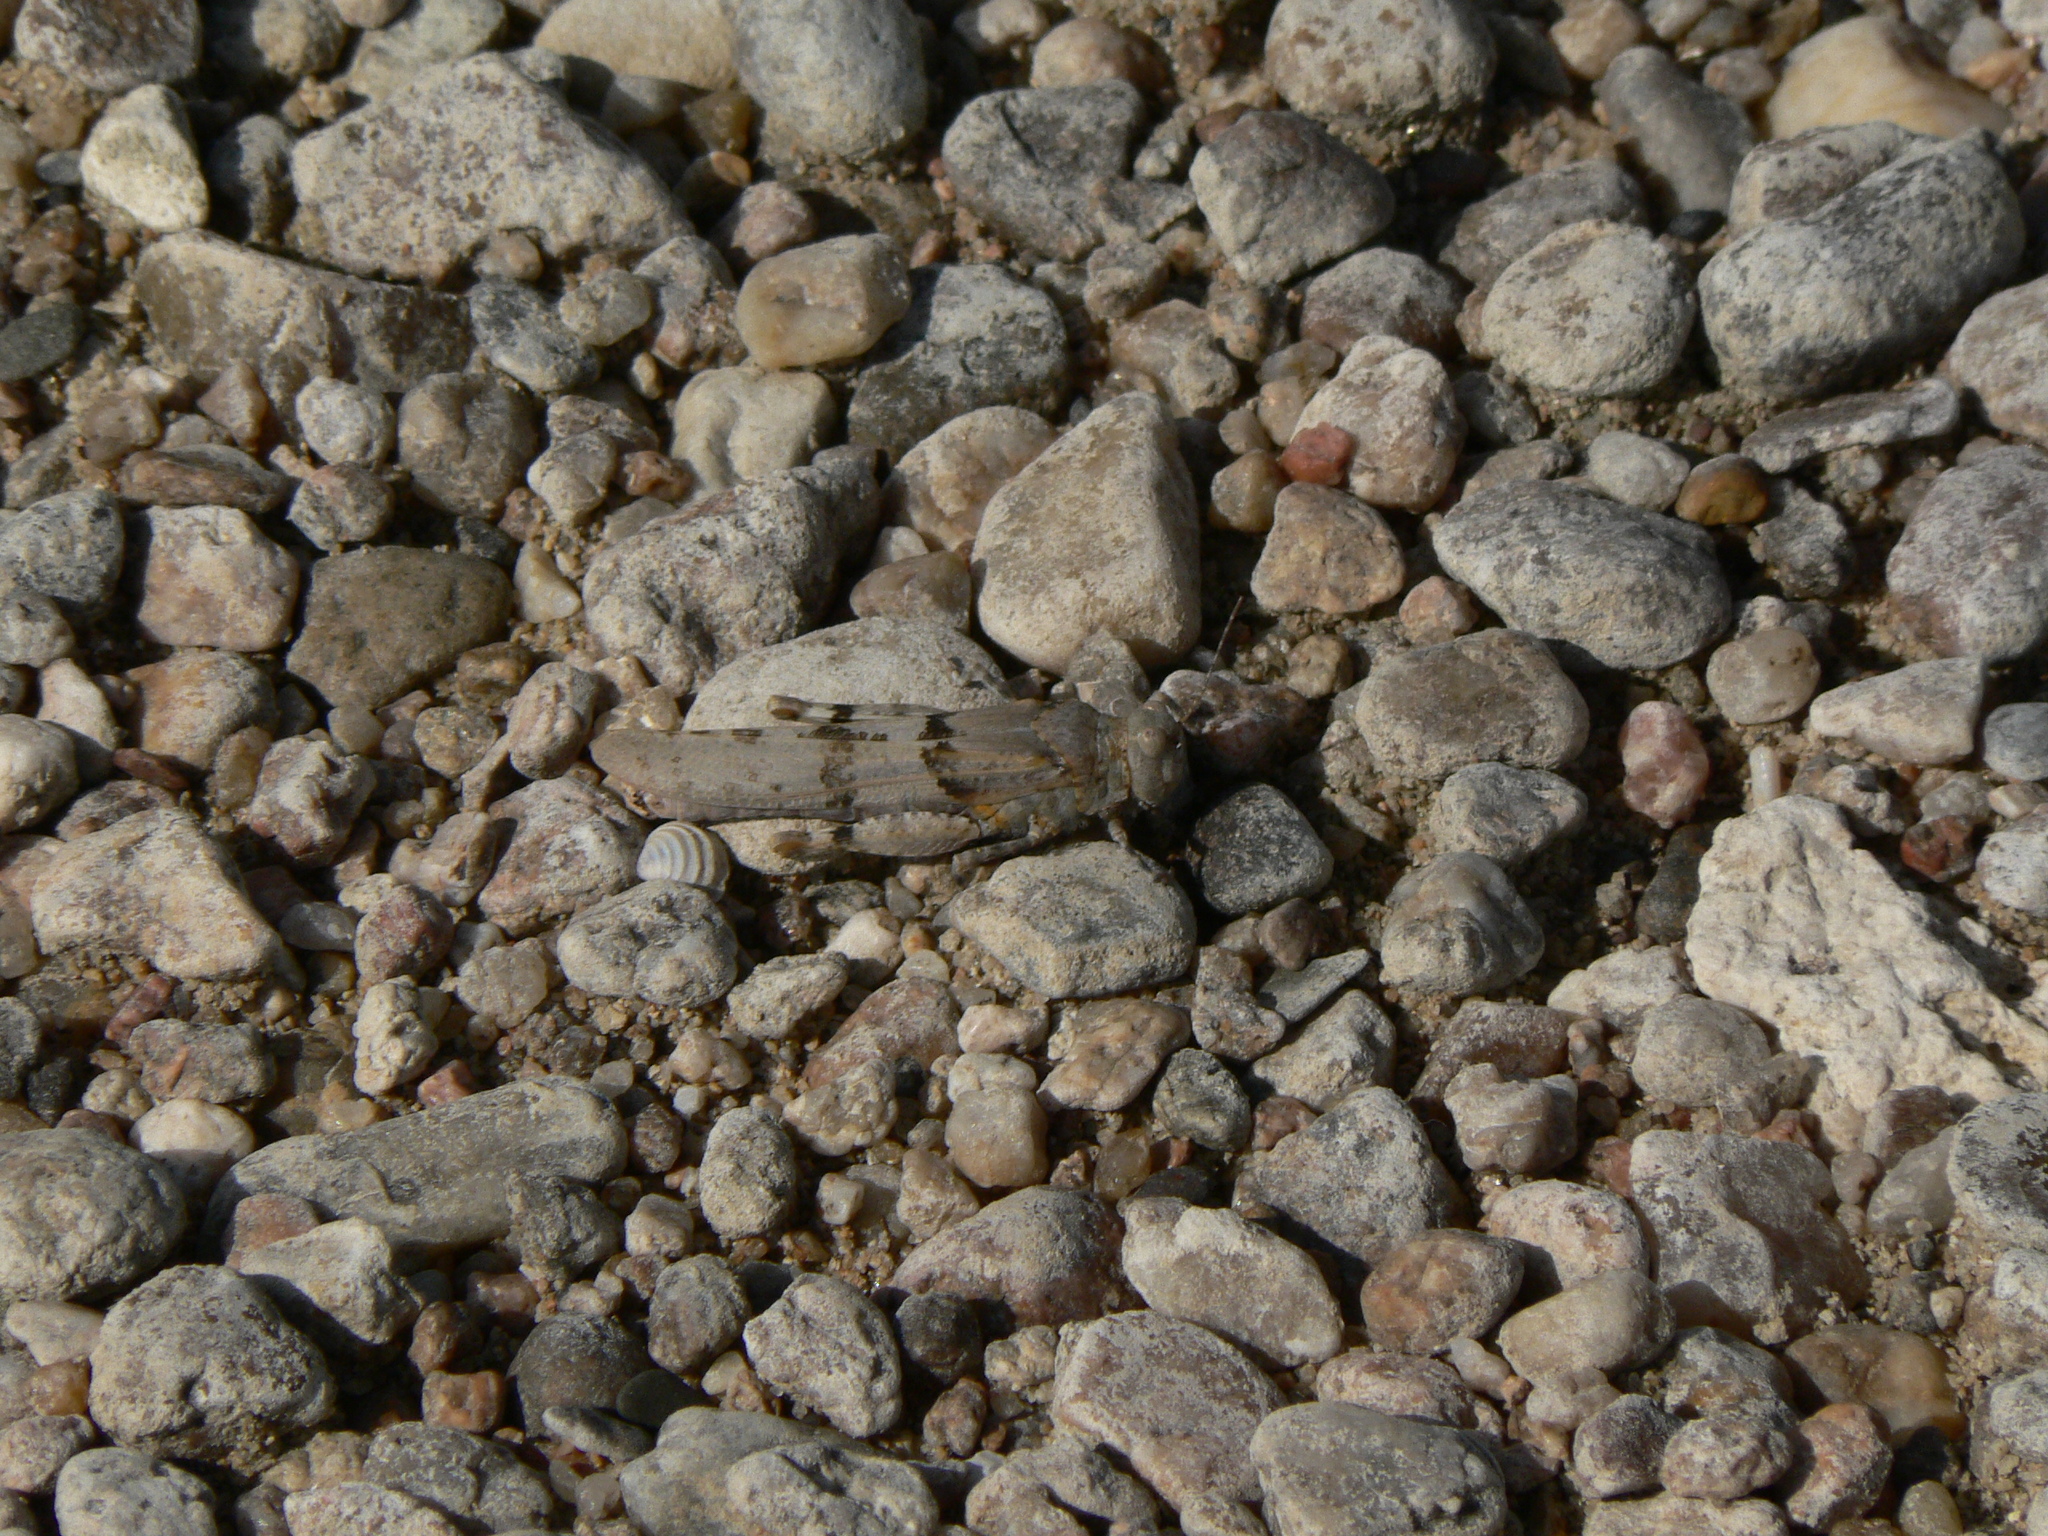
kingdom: Animalia
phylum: Arthropoda
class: Insecta
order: Orthoptera
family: Acrididae
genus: Sphingonotus
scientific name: Sphingonotus caerulans
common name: Blue-winged locust
